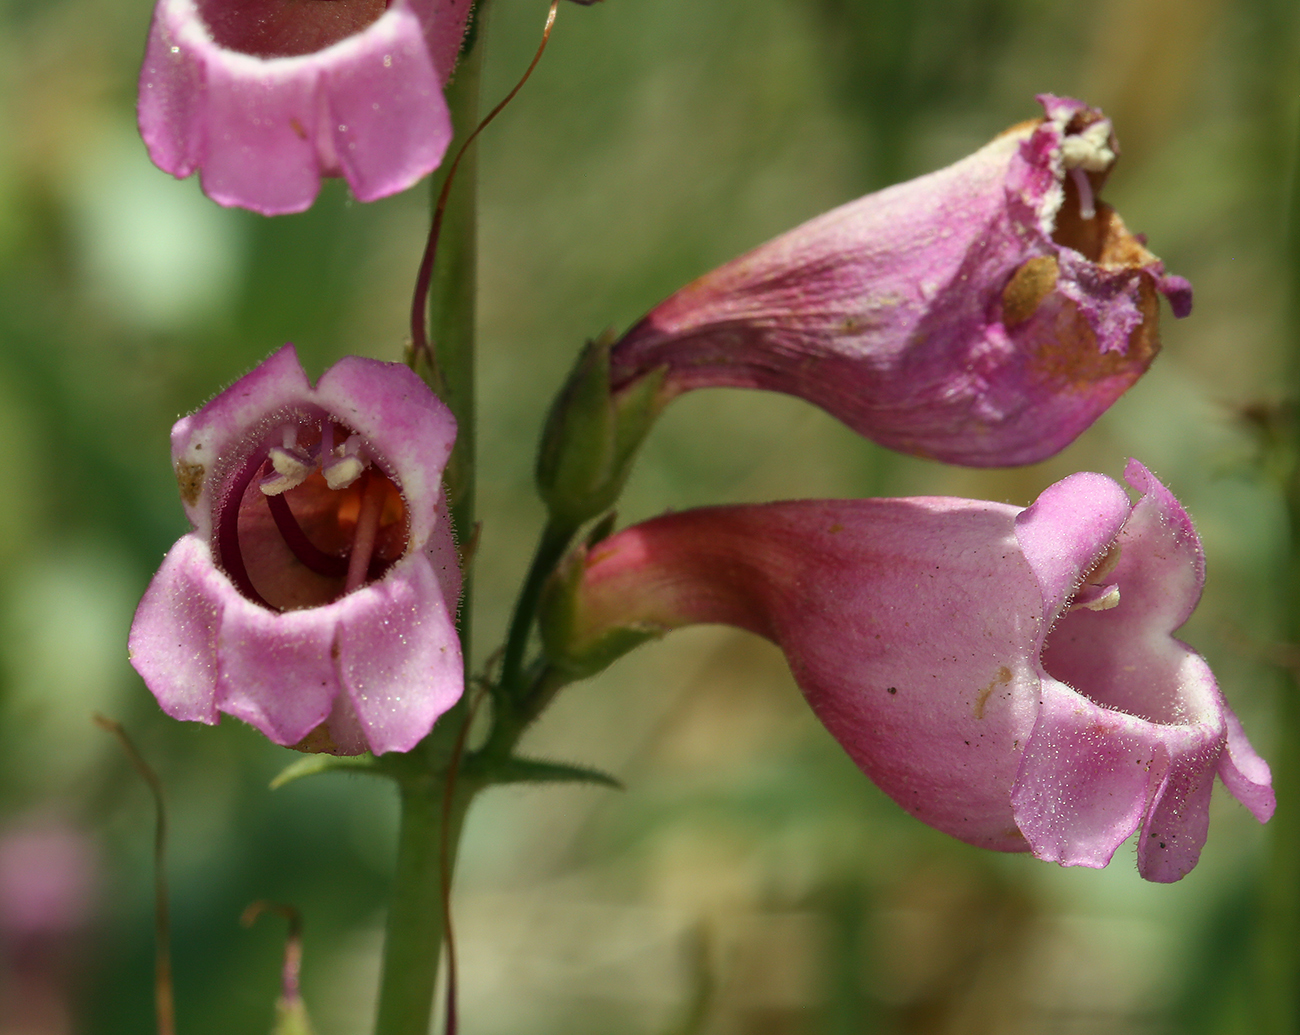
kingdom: Plantae
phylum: Tracheophyta
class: Magnoliopsida
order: Lamiales
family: Plantaginaceae
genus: Penstemon
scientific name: Penstemon floridus
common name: Panamint penstemon
